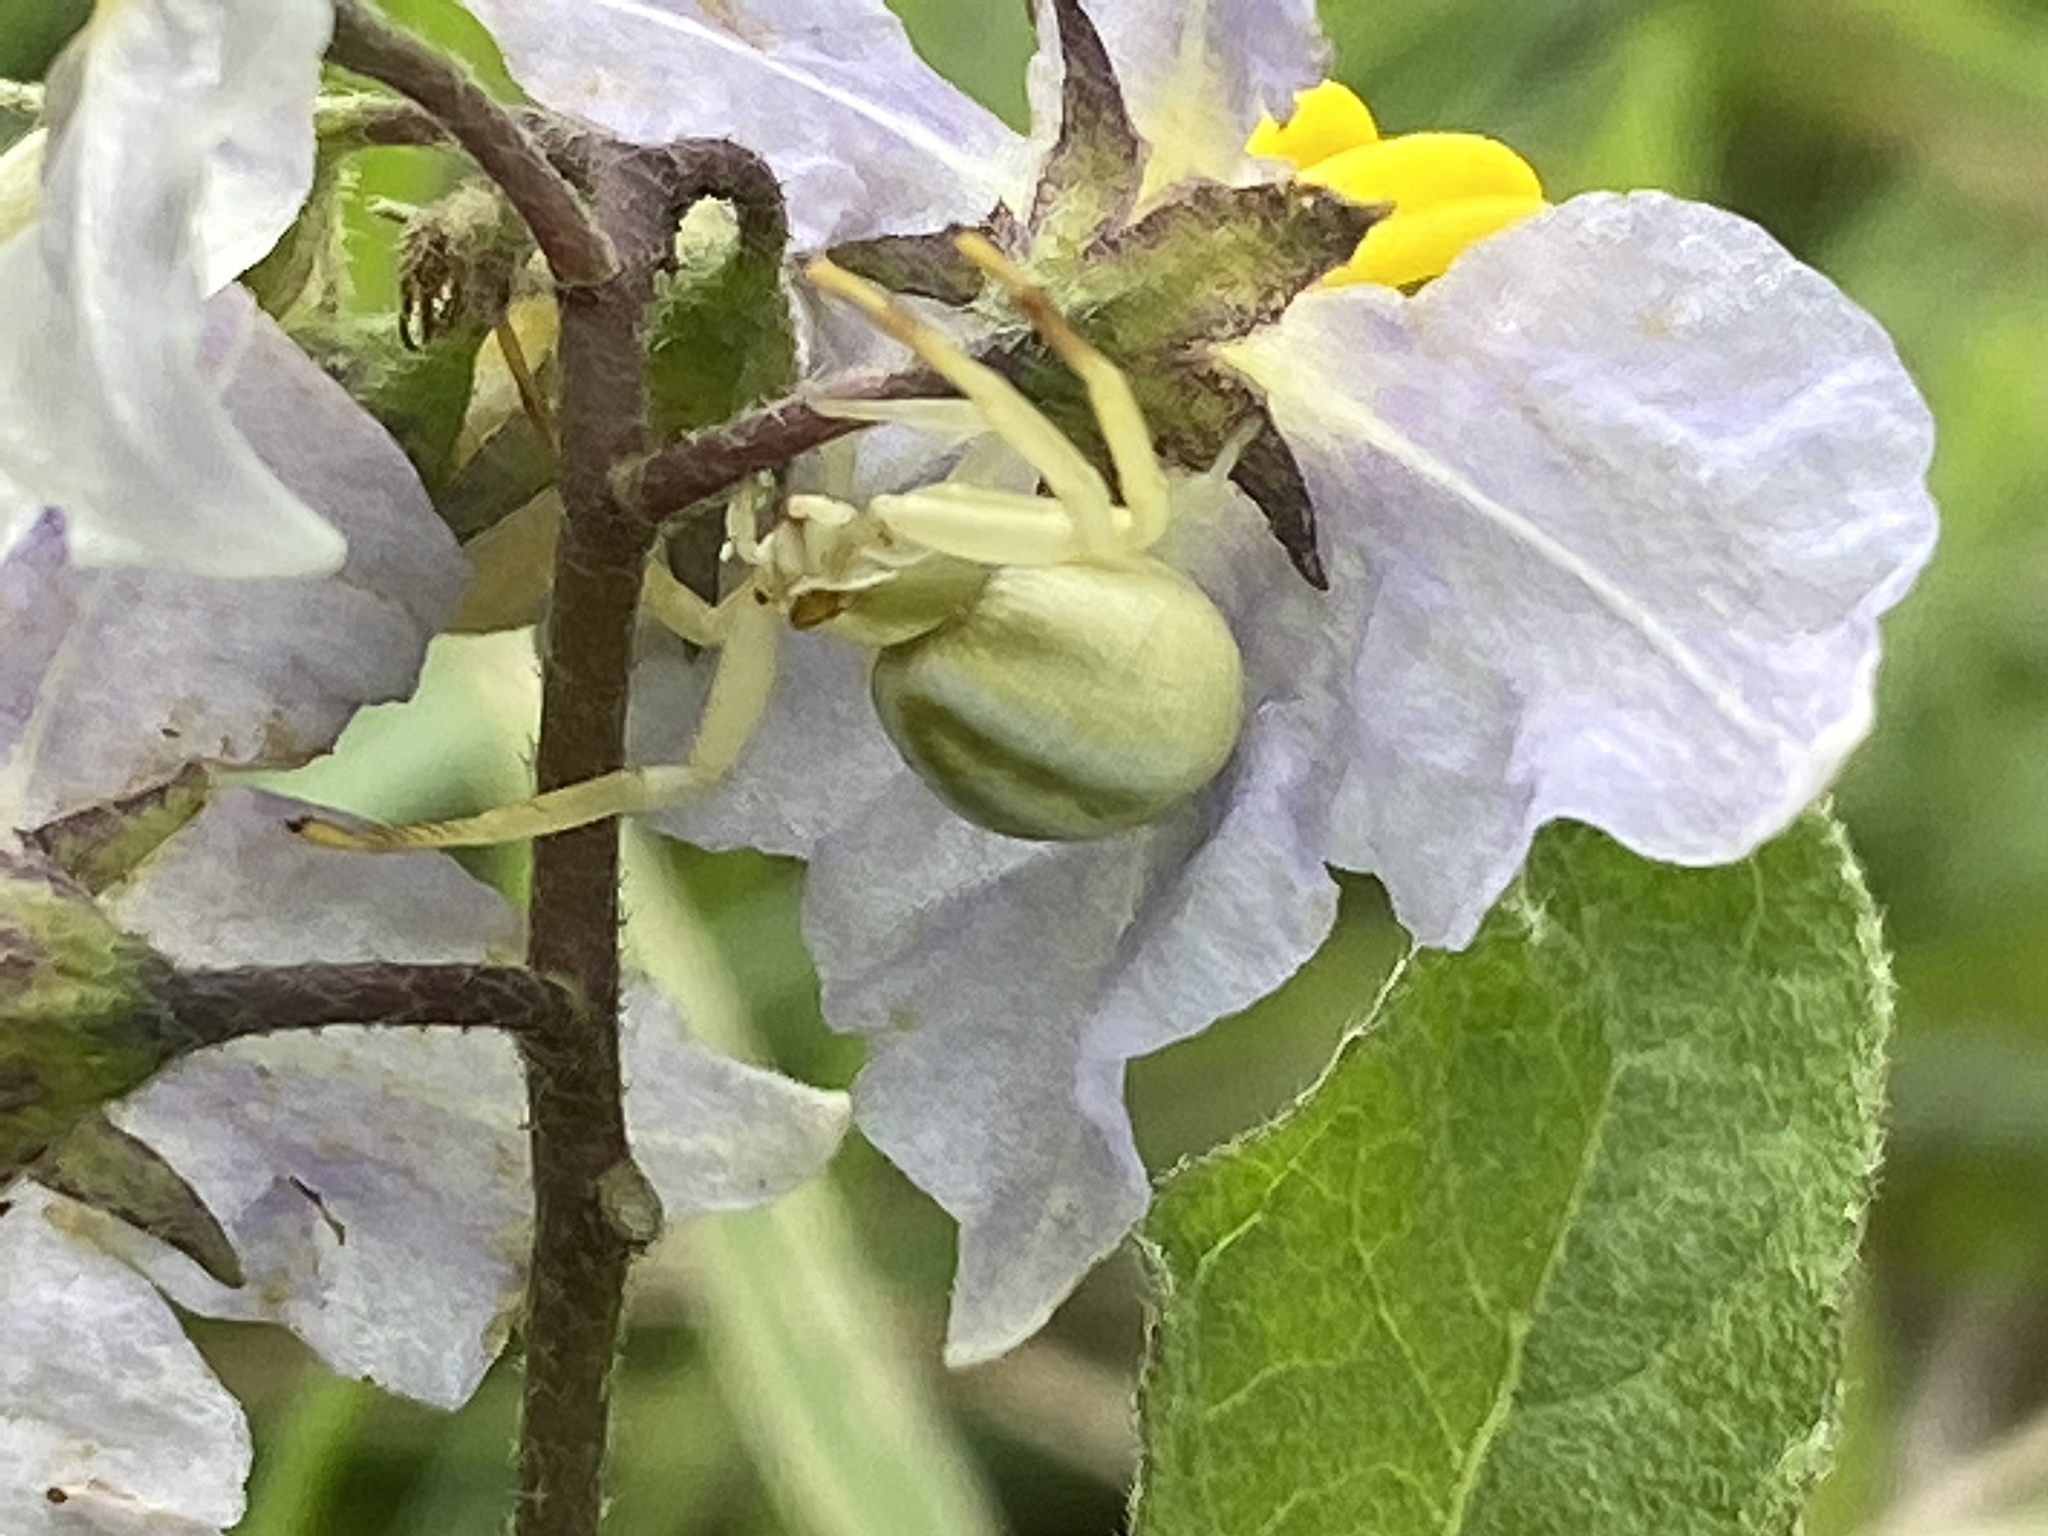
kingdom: Animalia
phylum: Arthropoda
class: Arachnida
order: Araneae
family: Thomisidae
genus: Misumenoides
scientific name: Misumenoides formosipes
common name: White-banded crab spider
